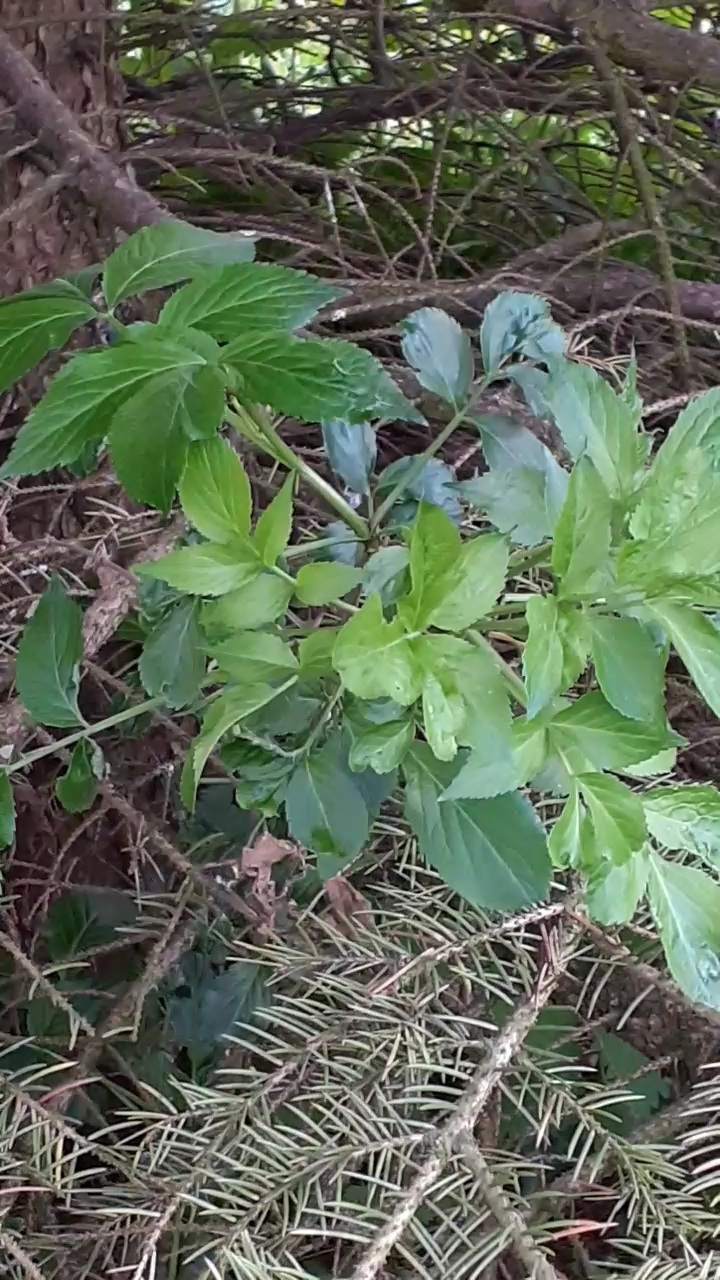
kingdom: Plantae
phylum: Tracheophyta
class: Magnoliopsida
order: Dipsacales
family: Viburnaceae
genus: Sambucus
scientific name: Sambucus nigra
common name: Elder
